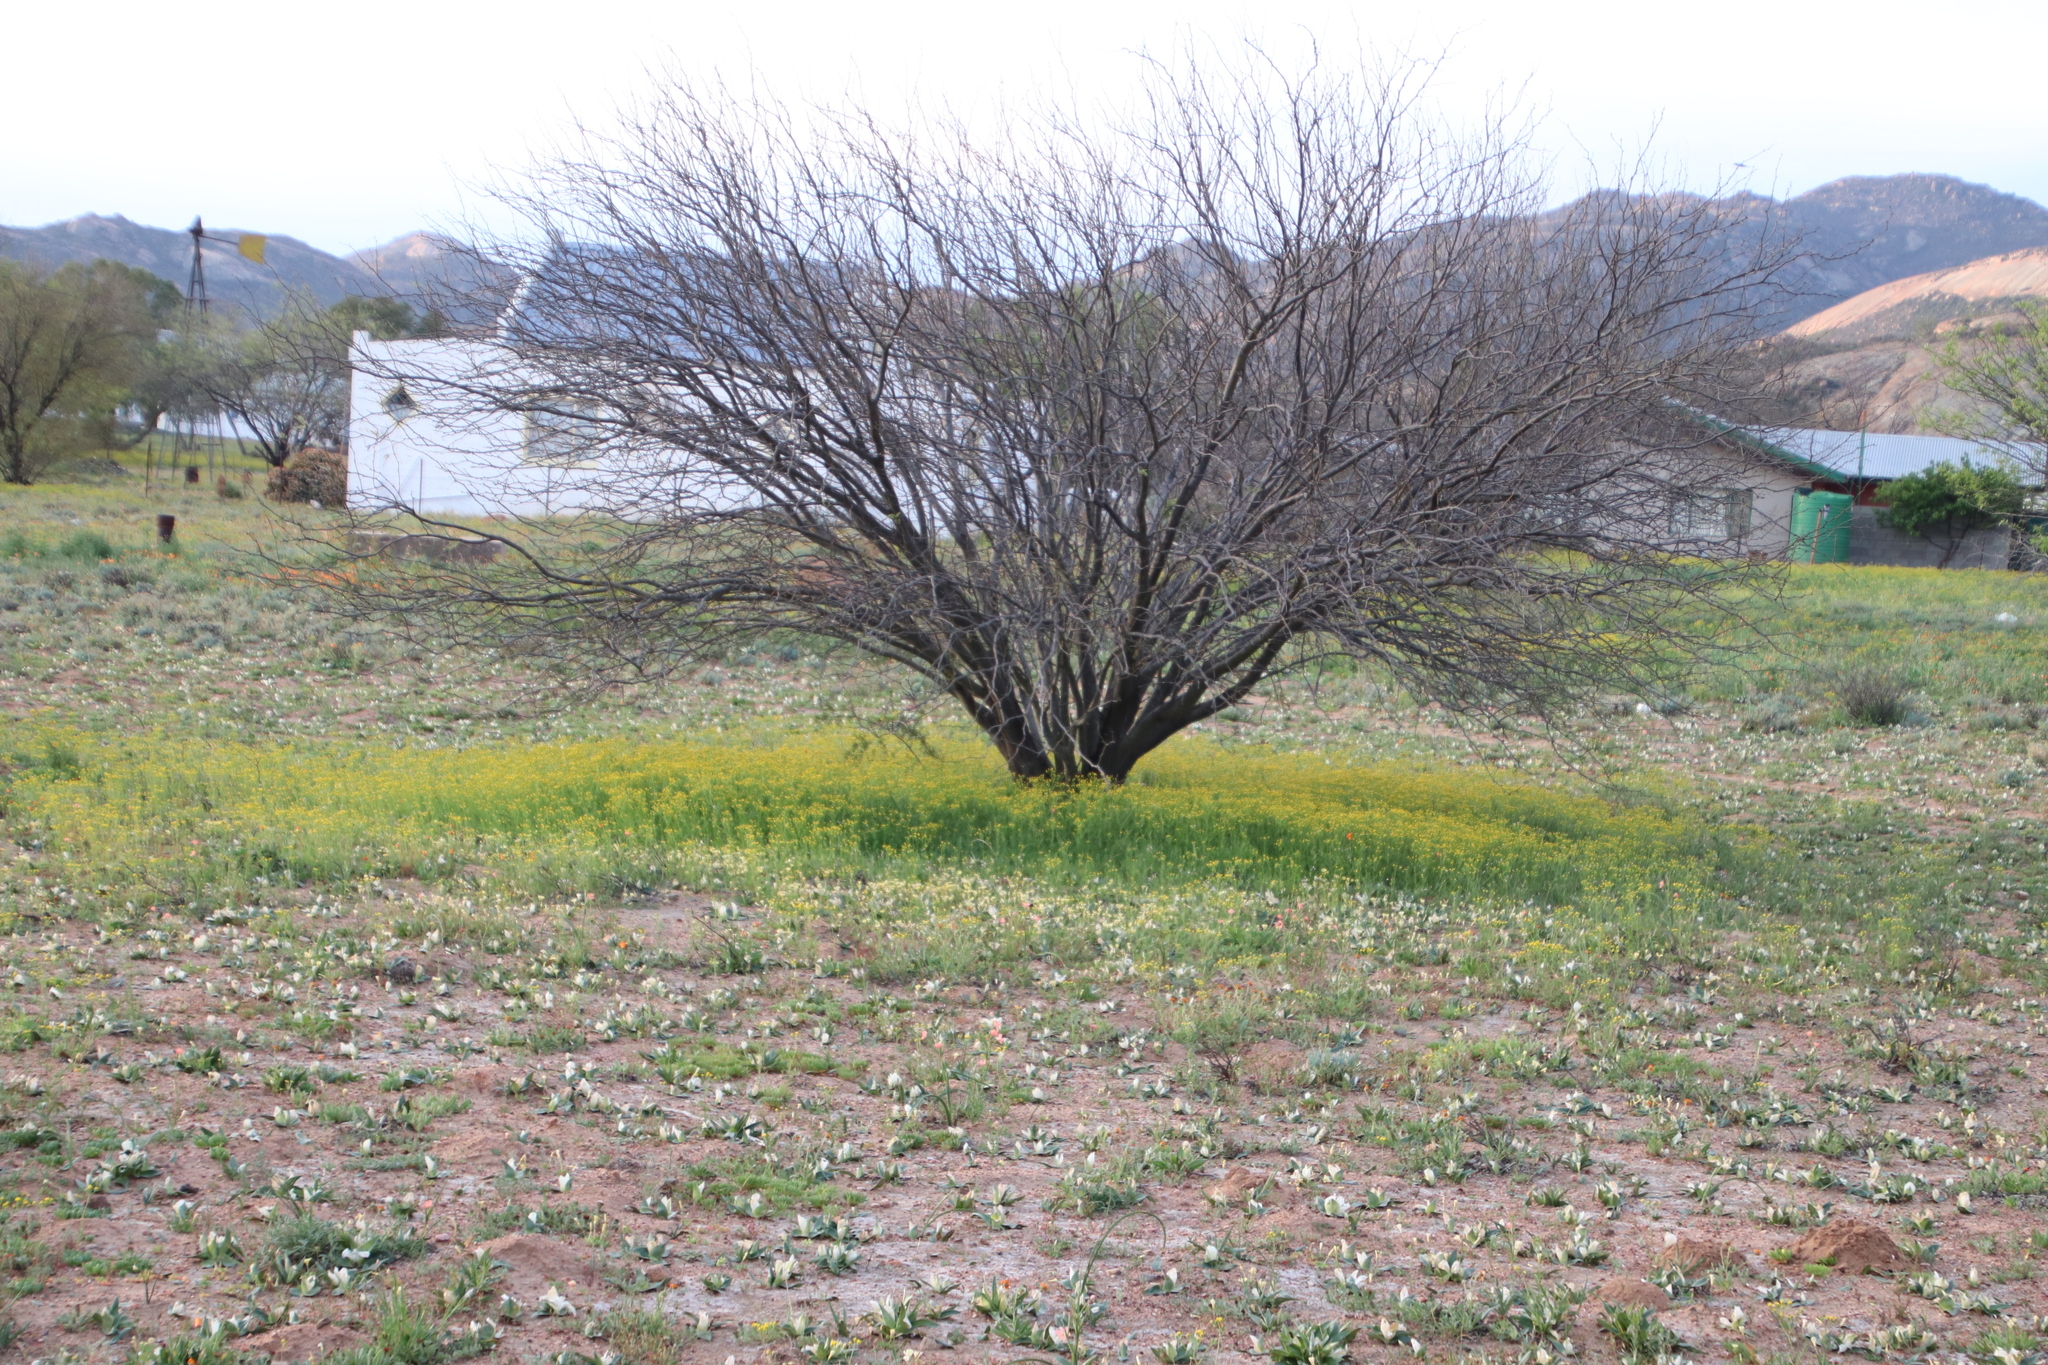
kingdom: Plantae
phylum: Tracheophyta
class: Magnoliopsida
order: Fabales
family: Fabaceae
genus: Prosopis
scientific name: Prosopis pubescens
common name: Screw-bean
